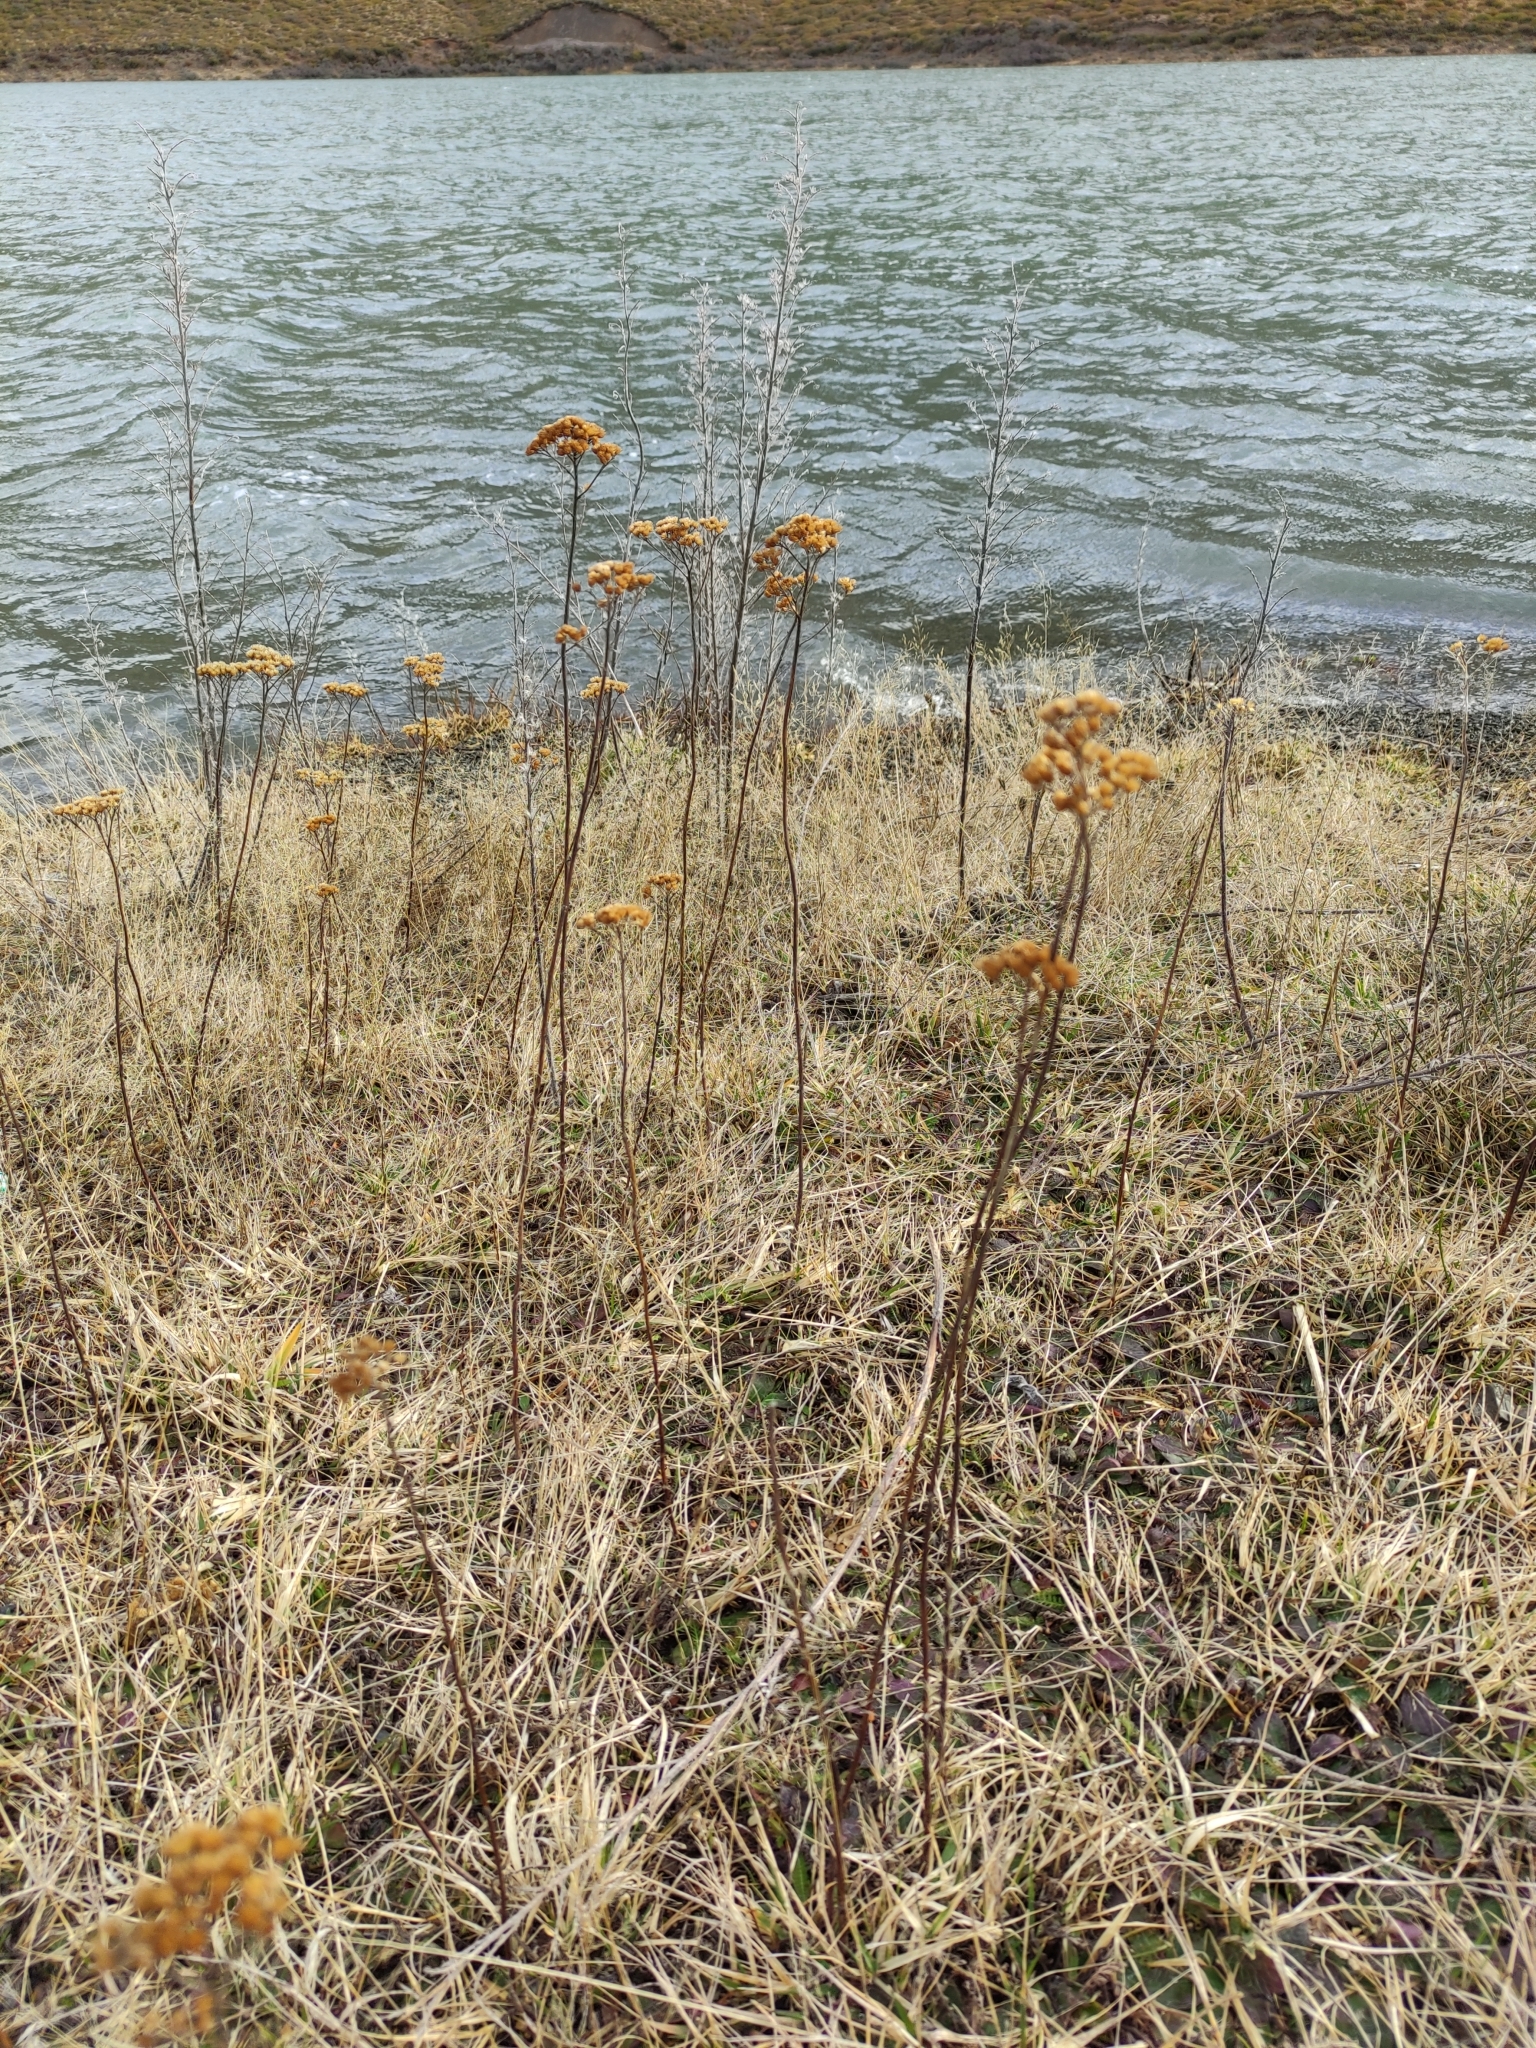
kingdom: Plantae
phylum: Tracheophyta
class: Magnoliopsida
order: Asterales
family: Asteraceae
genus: Achillea
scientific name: Achillea millefolium
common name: Yarrow
